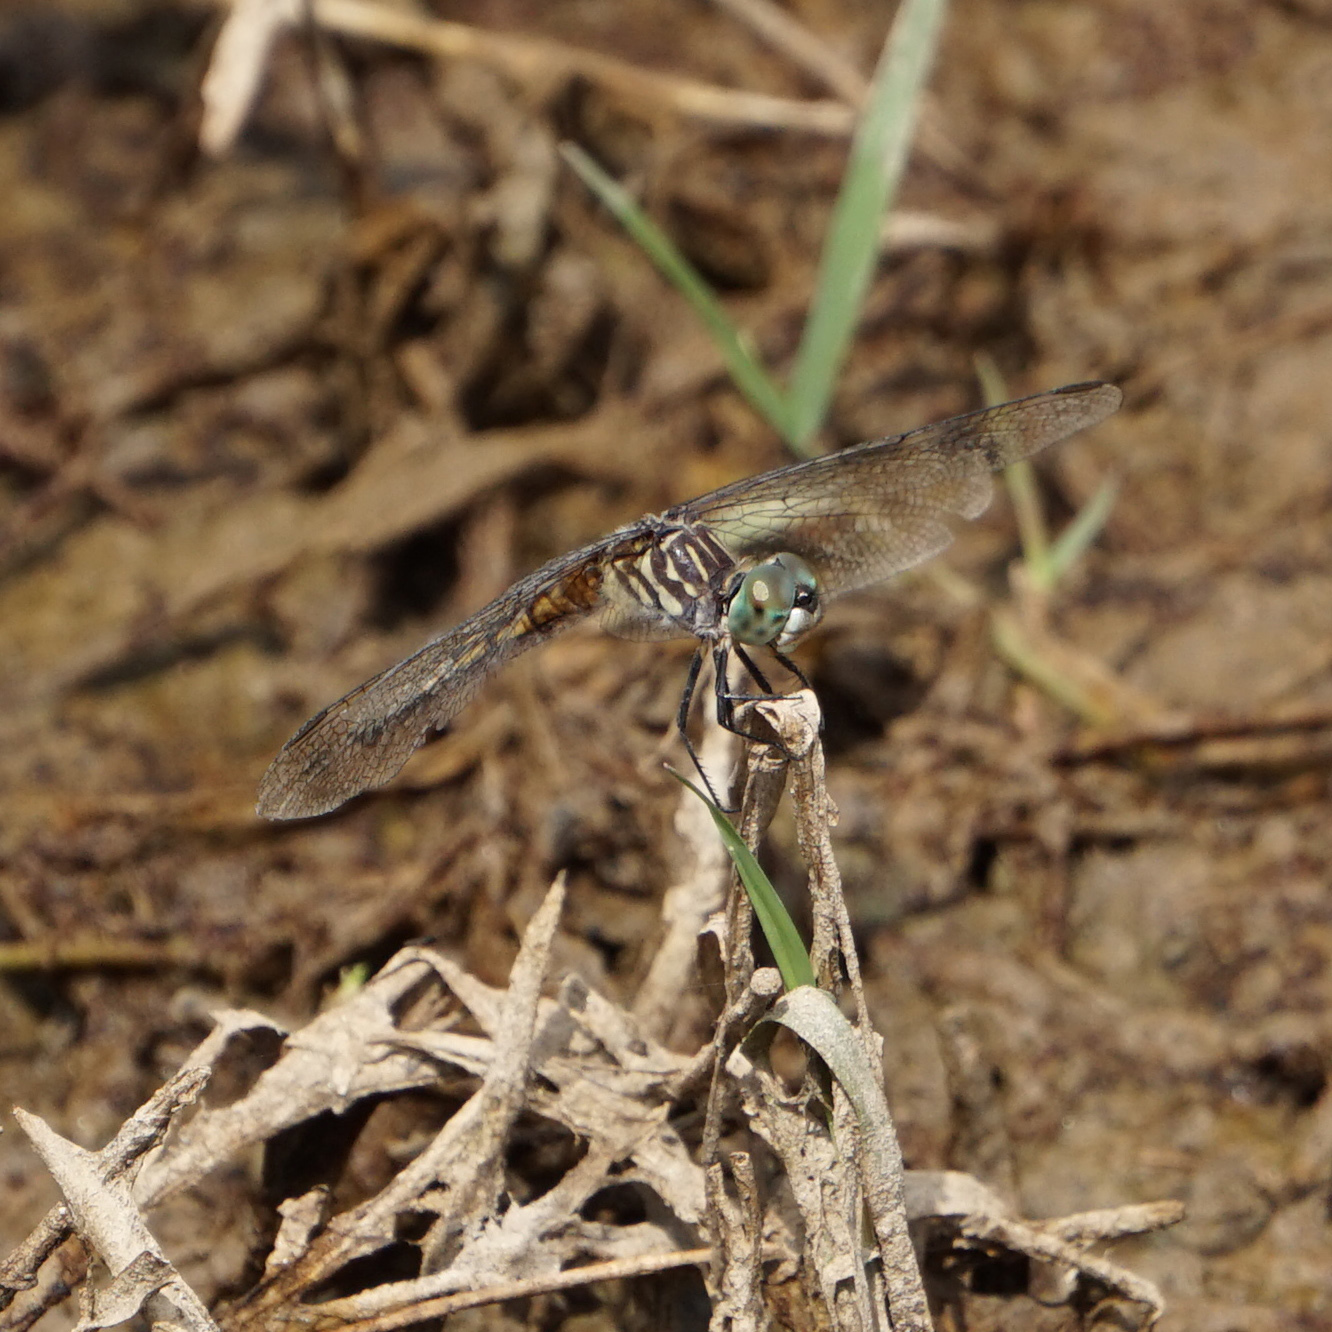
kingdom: Animalia
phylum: Arthropoda
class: Insecta
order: Odonata
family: Libellulidae
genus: Pachydiplax
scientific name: Pachydiplax longipennis
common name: Blue dasher
